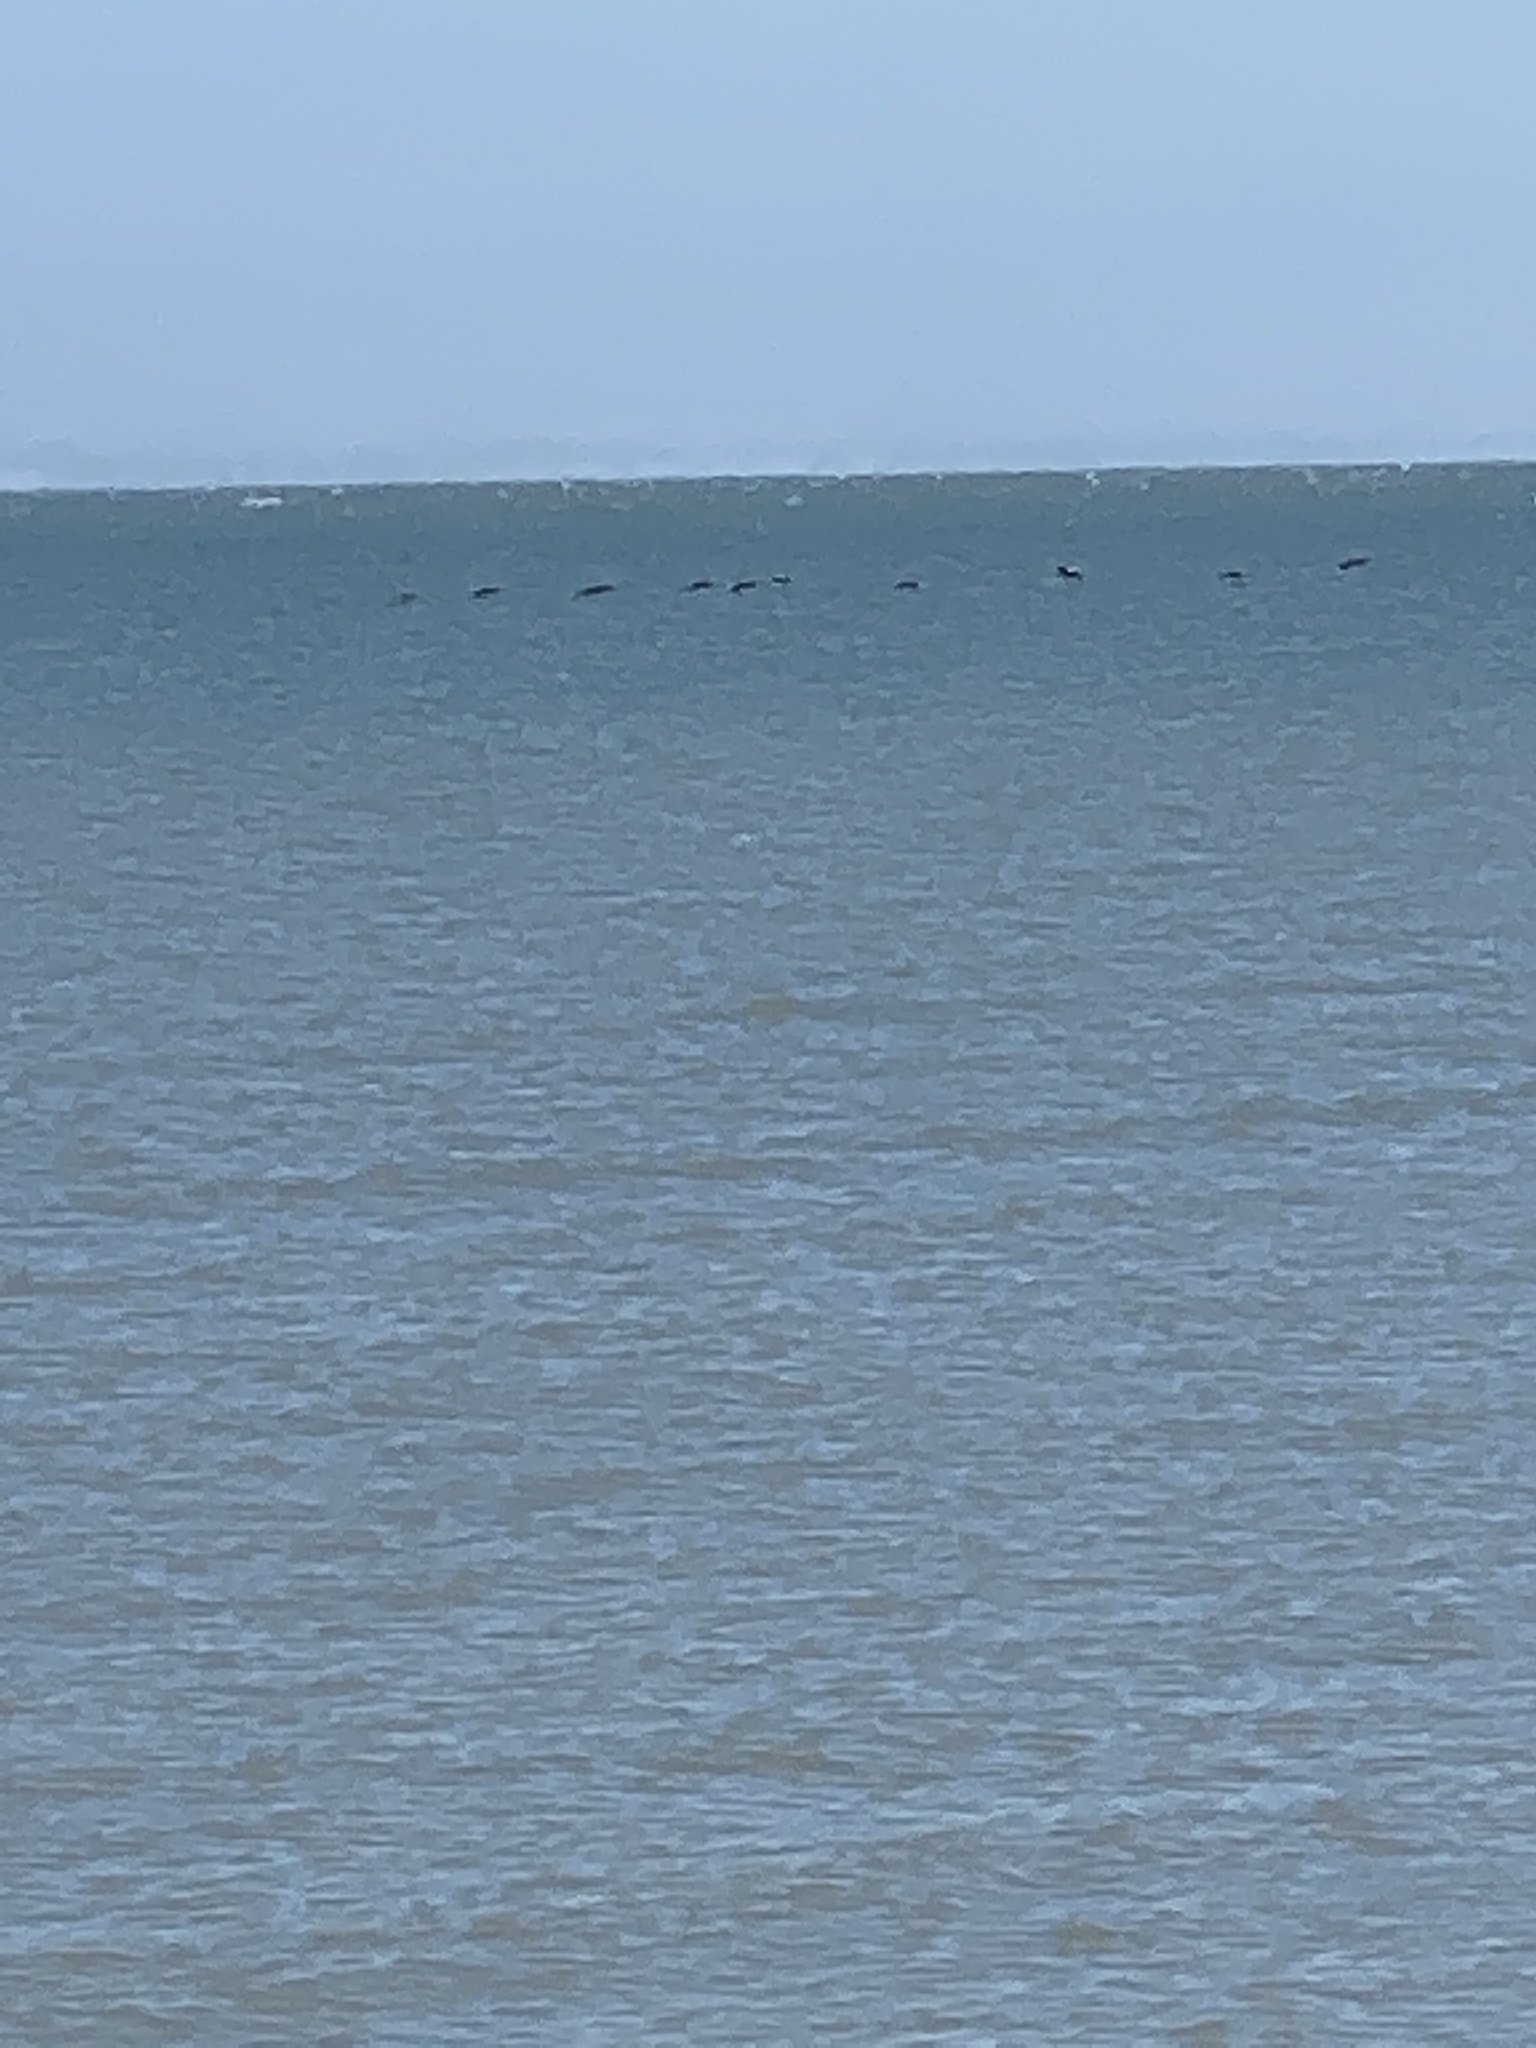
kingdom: Animalia
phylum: Chordata
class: Aves
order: Pelecaniformes
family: Pelecanidae
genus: Pelecanus
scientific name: Pelecanus occidentalis
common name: Brown pelican
